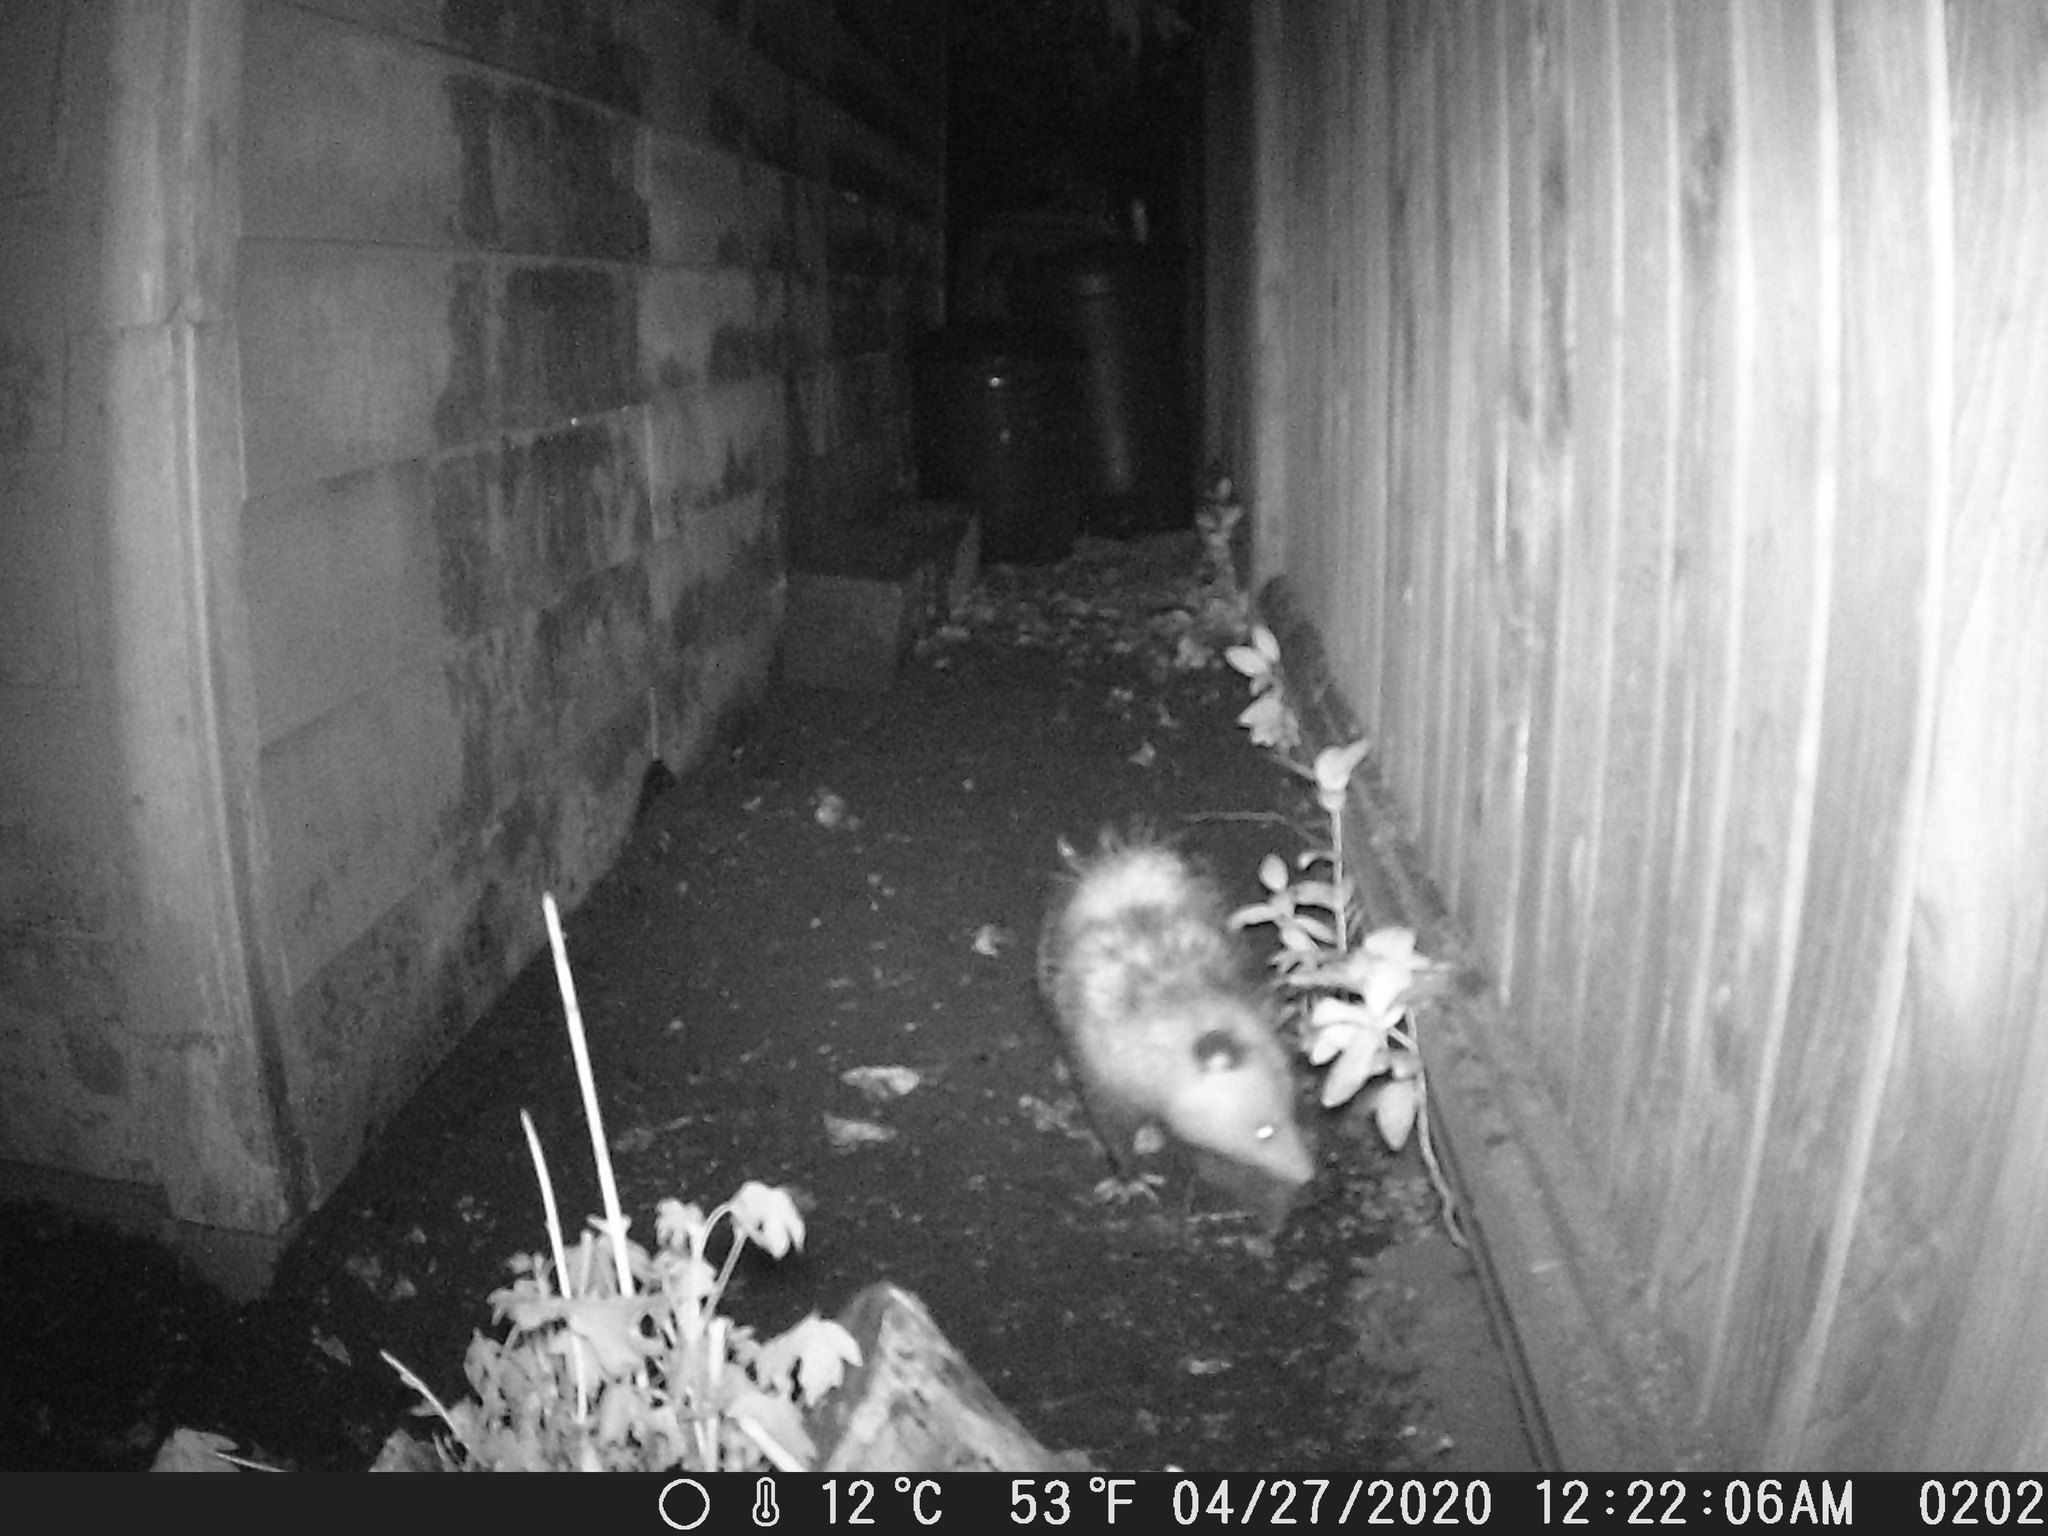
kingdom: Animalia
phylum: Chordata
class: Mammalia
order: Didelphimorphia
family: Didelphidae
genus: Didelphis
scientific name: Didelphis virginiana
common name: Virginia opossum
